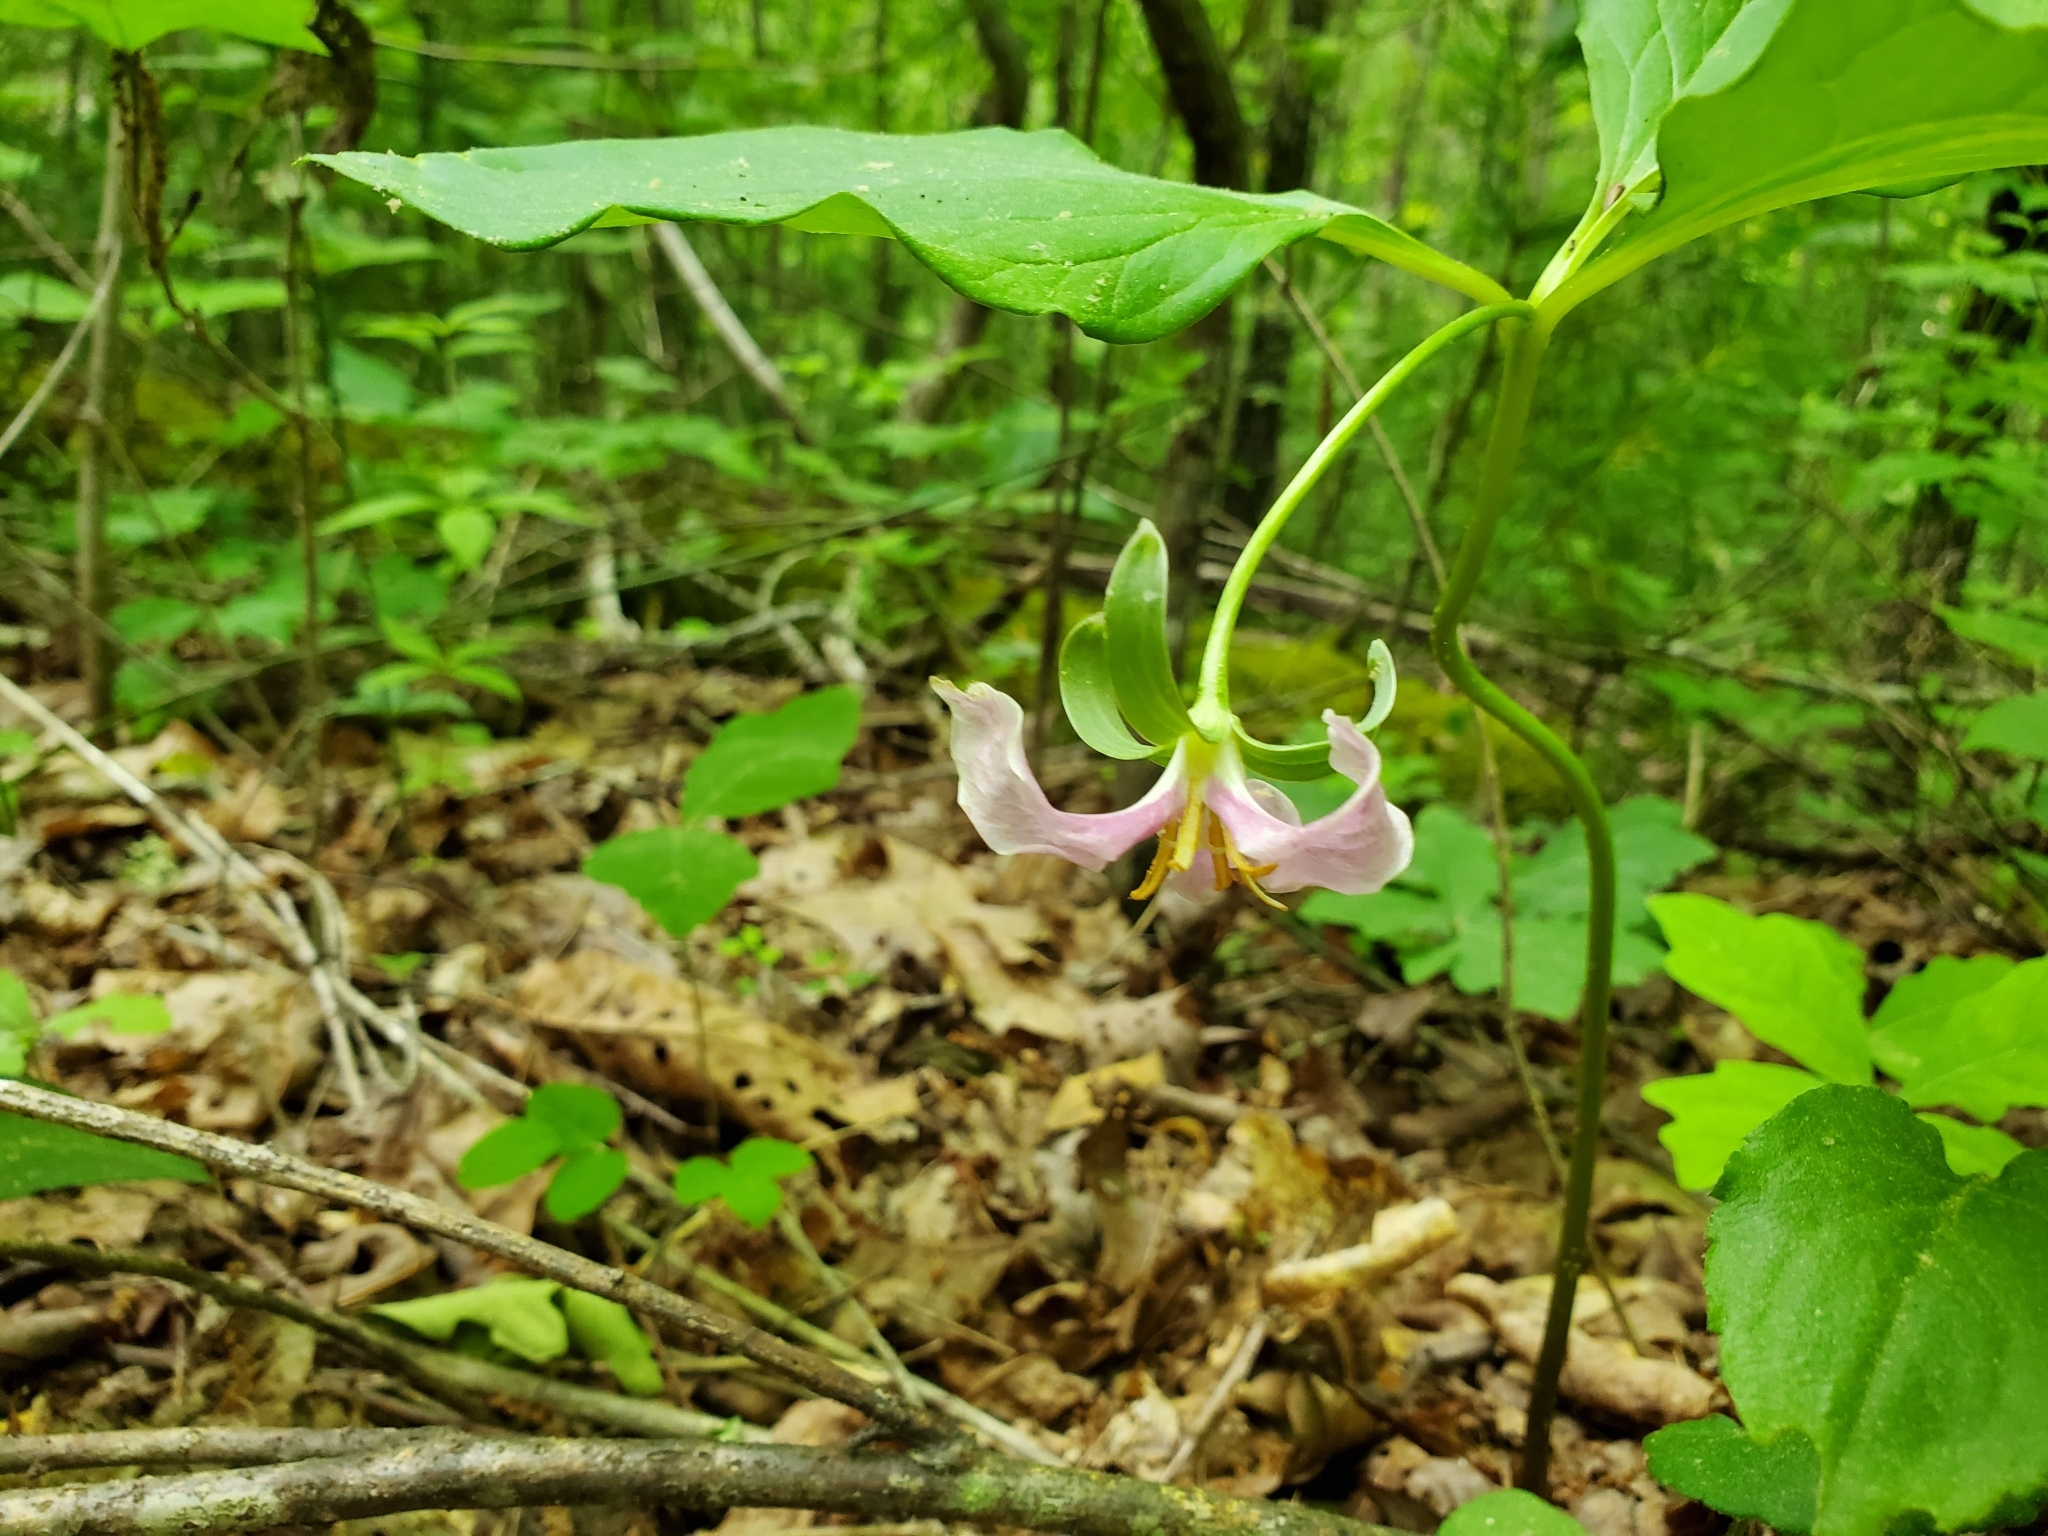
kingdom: Plantae
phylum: Tracheophyta
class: Liliopsida
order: Liliales
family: Melanthiaceae
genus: Trillium
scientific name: Trillium catesbaei
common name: Bashful trillium
